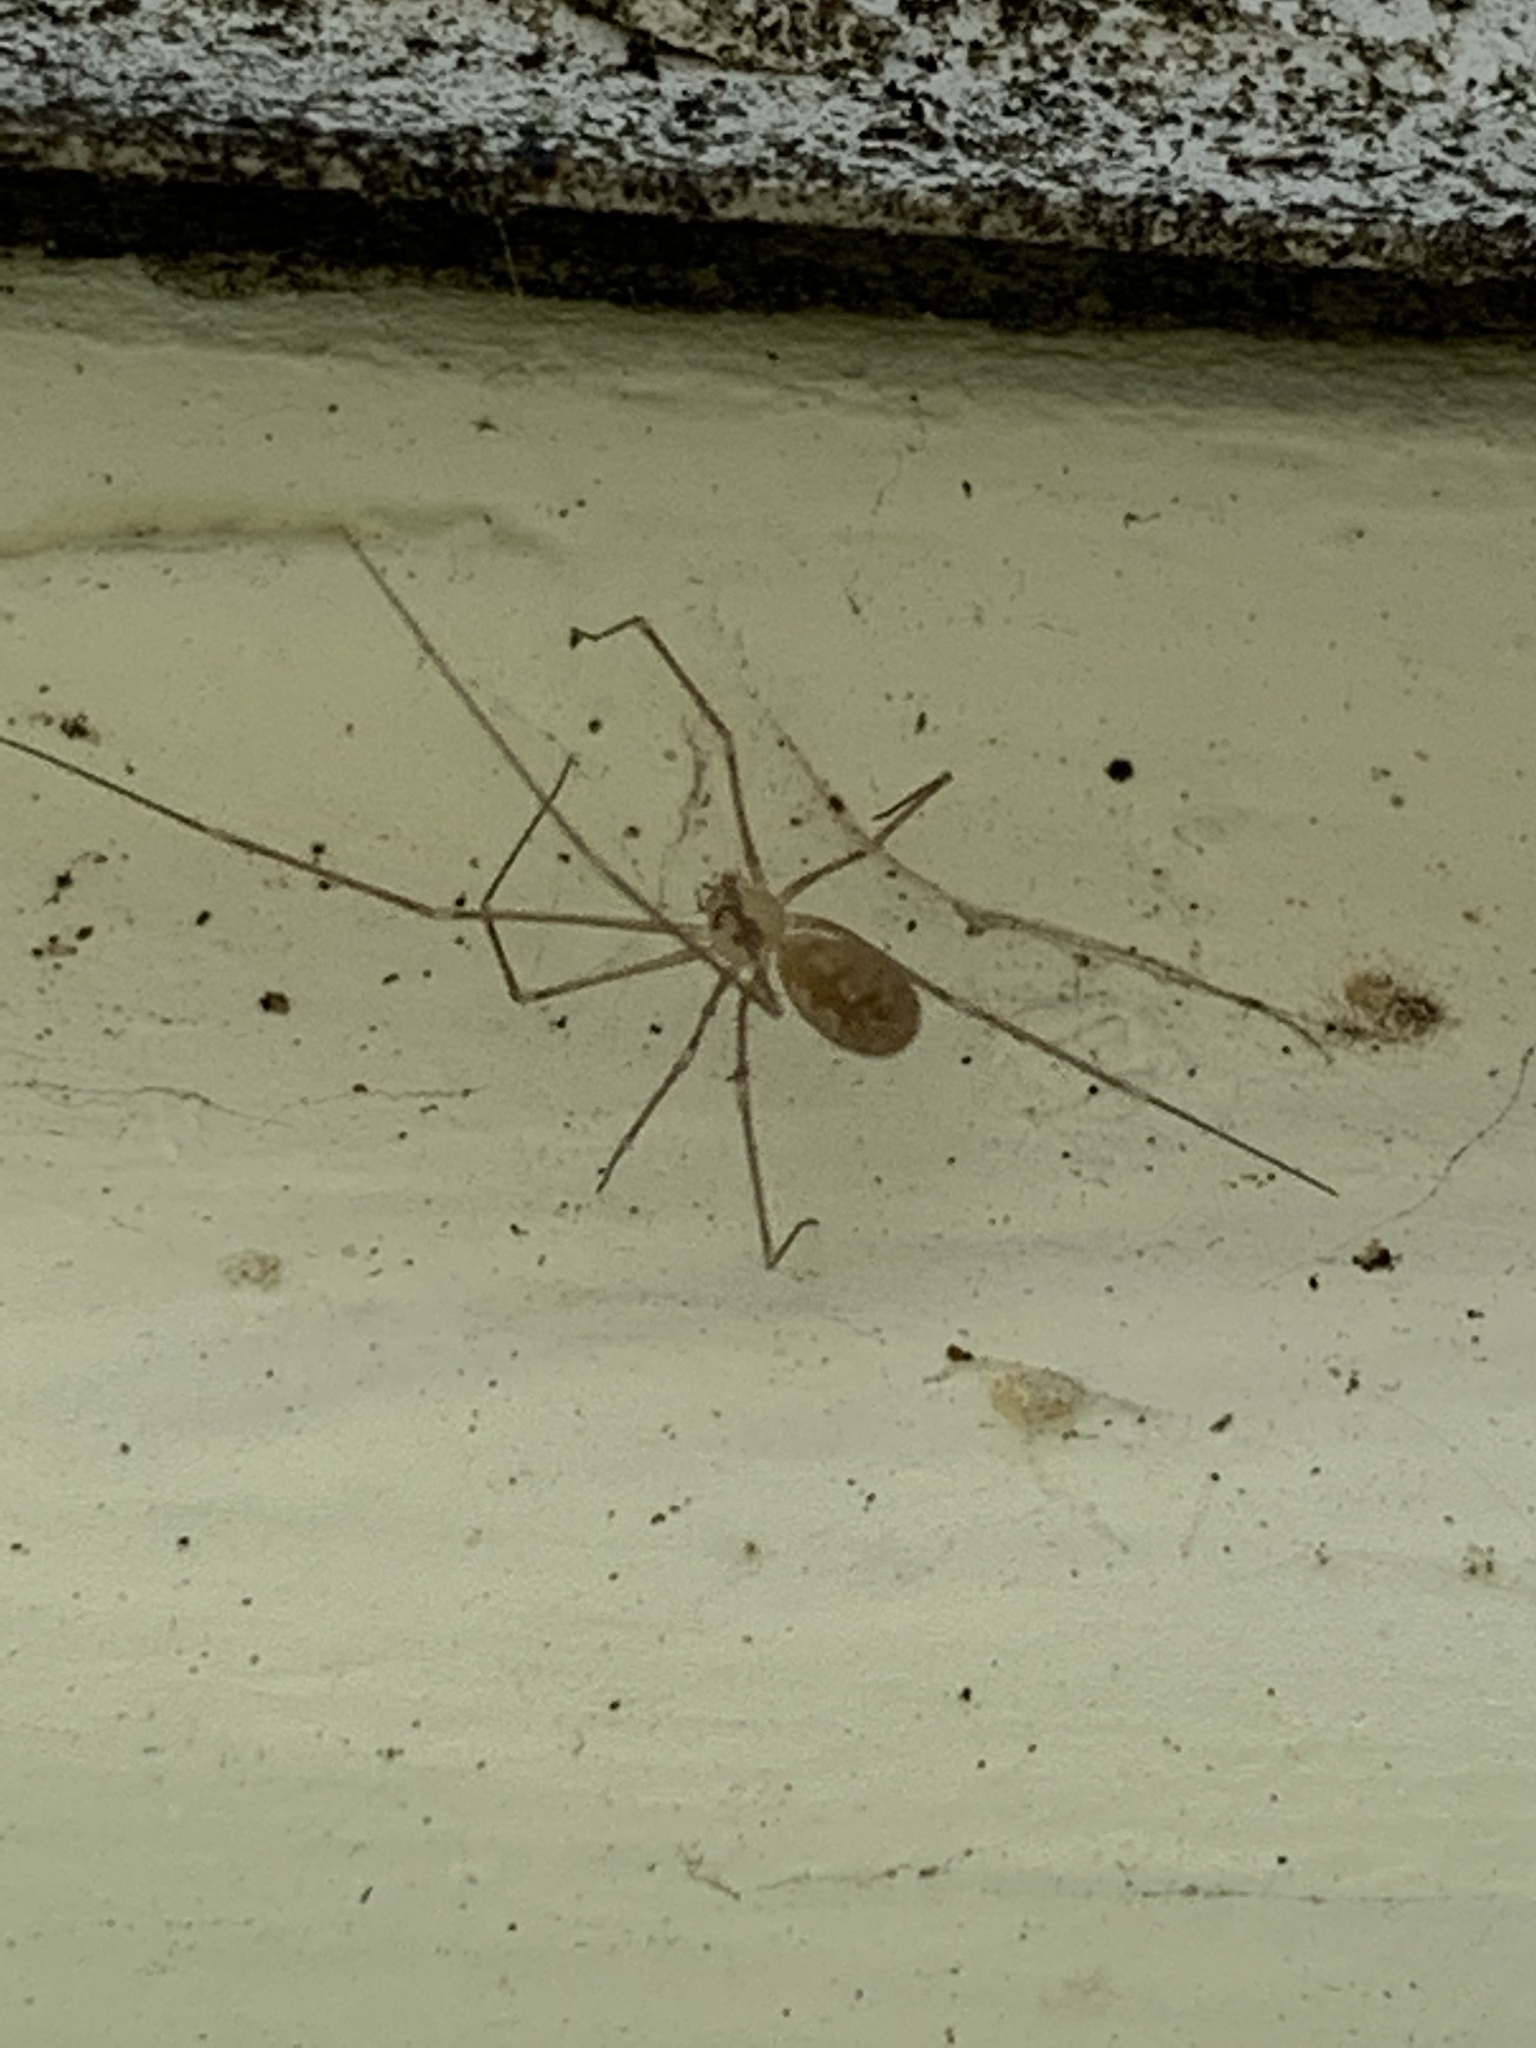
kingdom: Animalia
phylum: Arthropoda
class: Arachnida
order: Araneae
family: Pholcidae
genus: Pholcus
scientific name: Pholcus phalangioides
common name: Longbodied cellar spider
